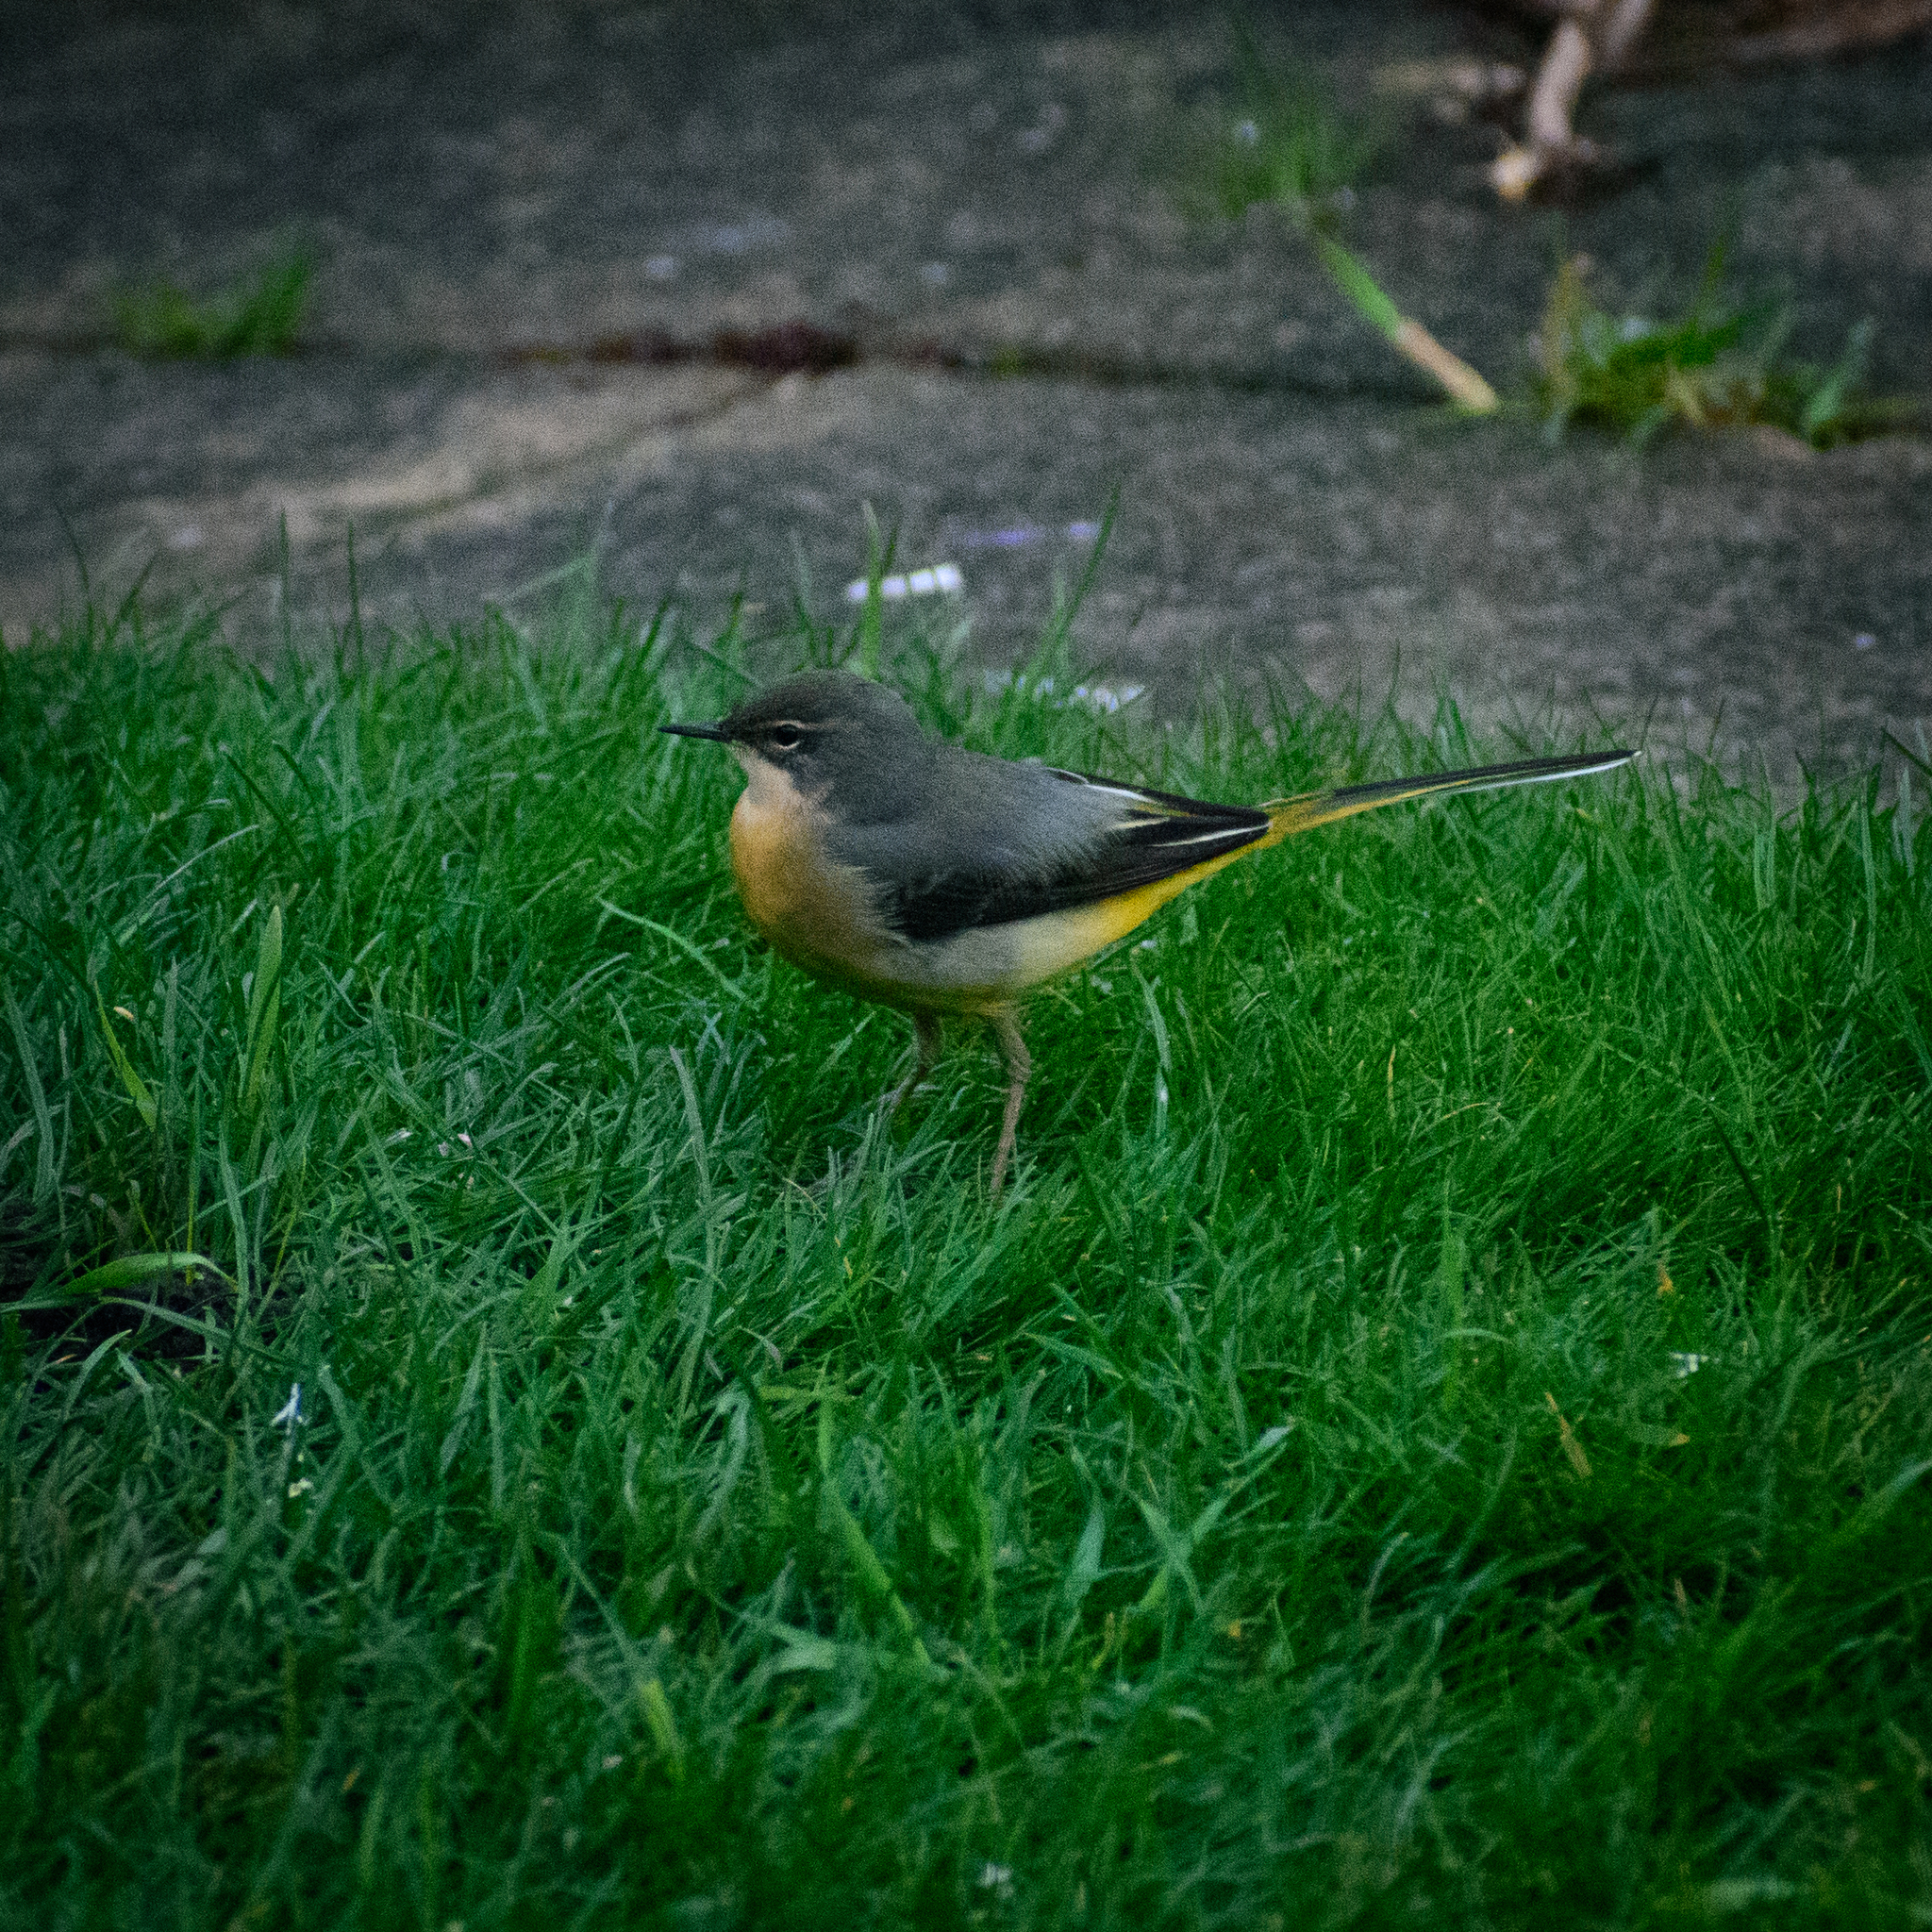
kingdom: Animalia
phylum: Chordata
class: Aves
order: Passeriformes
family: Motacillidae
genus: Motacilla
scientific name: Motacilla cinerea
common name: Grey wagtail
